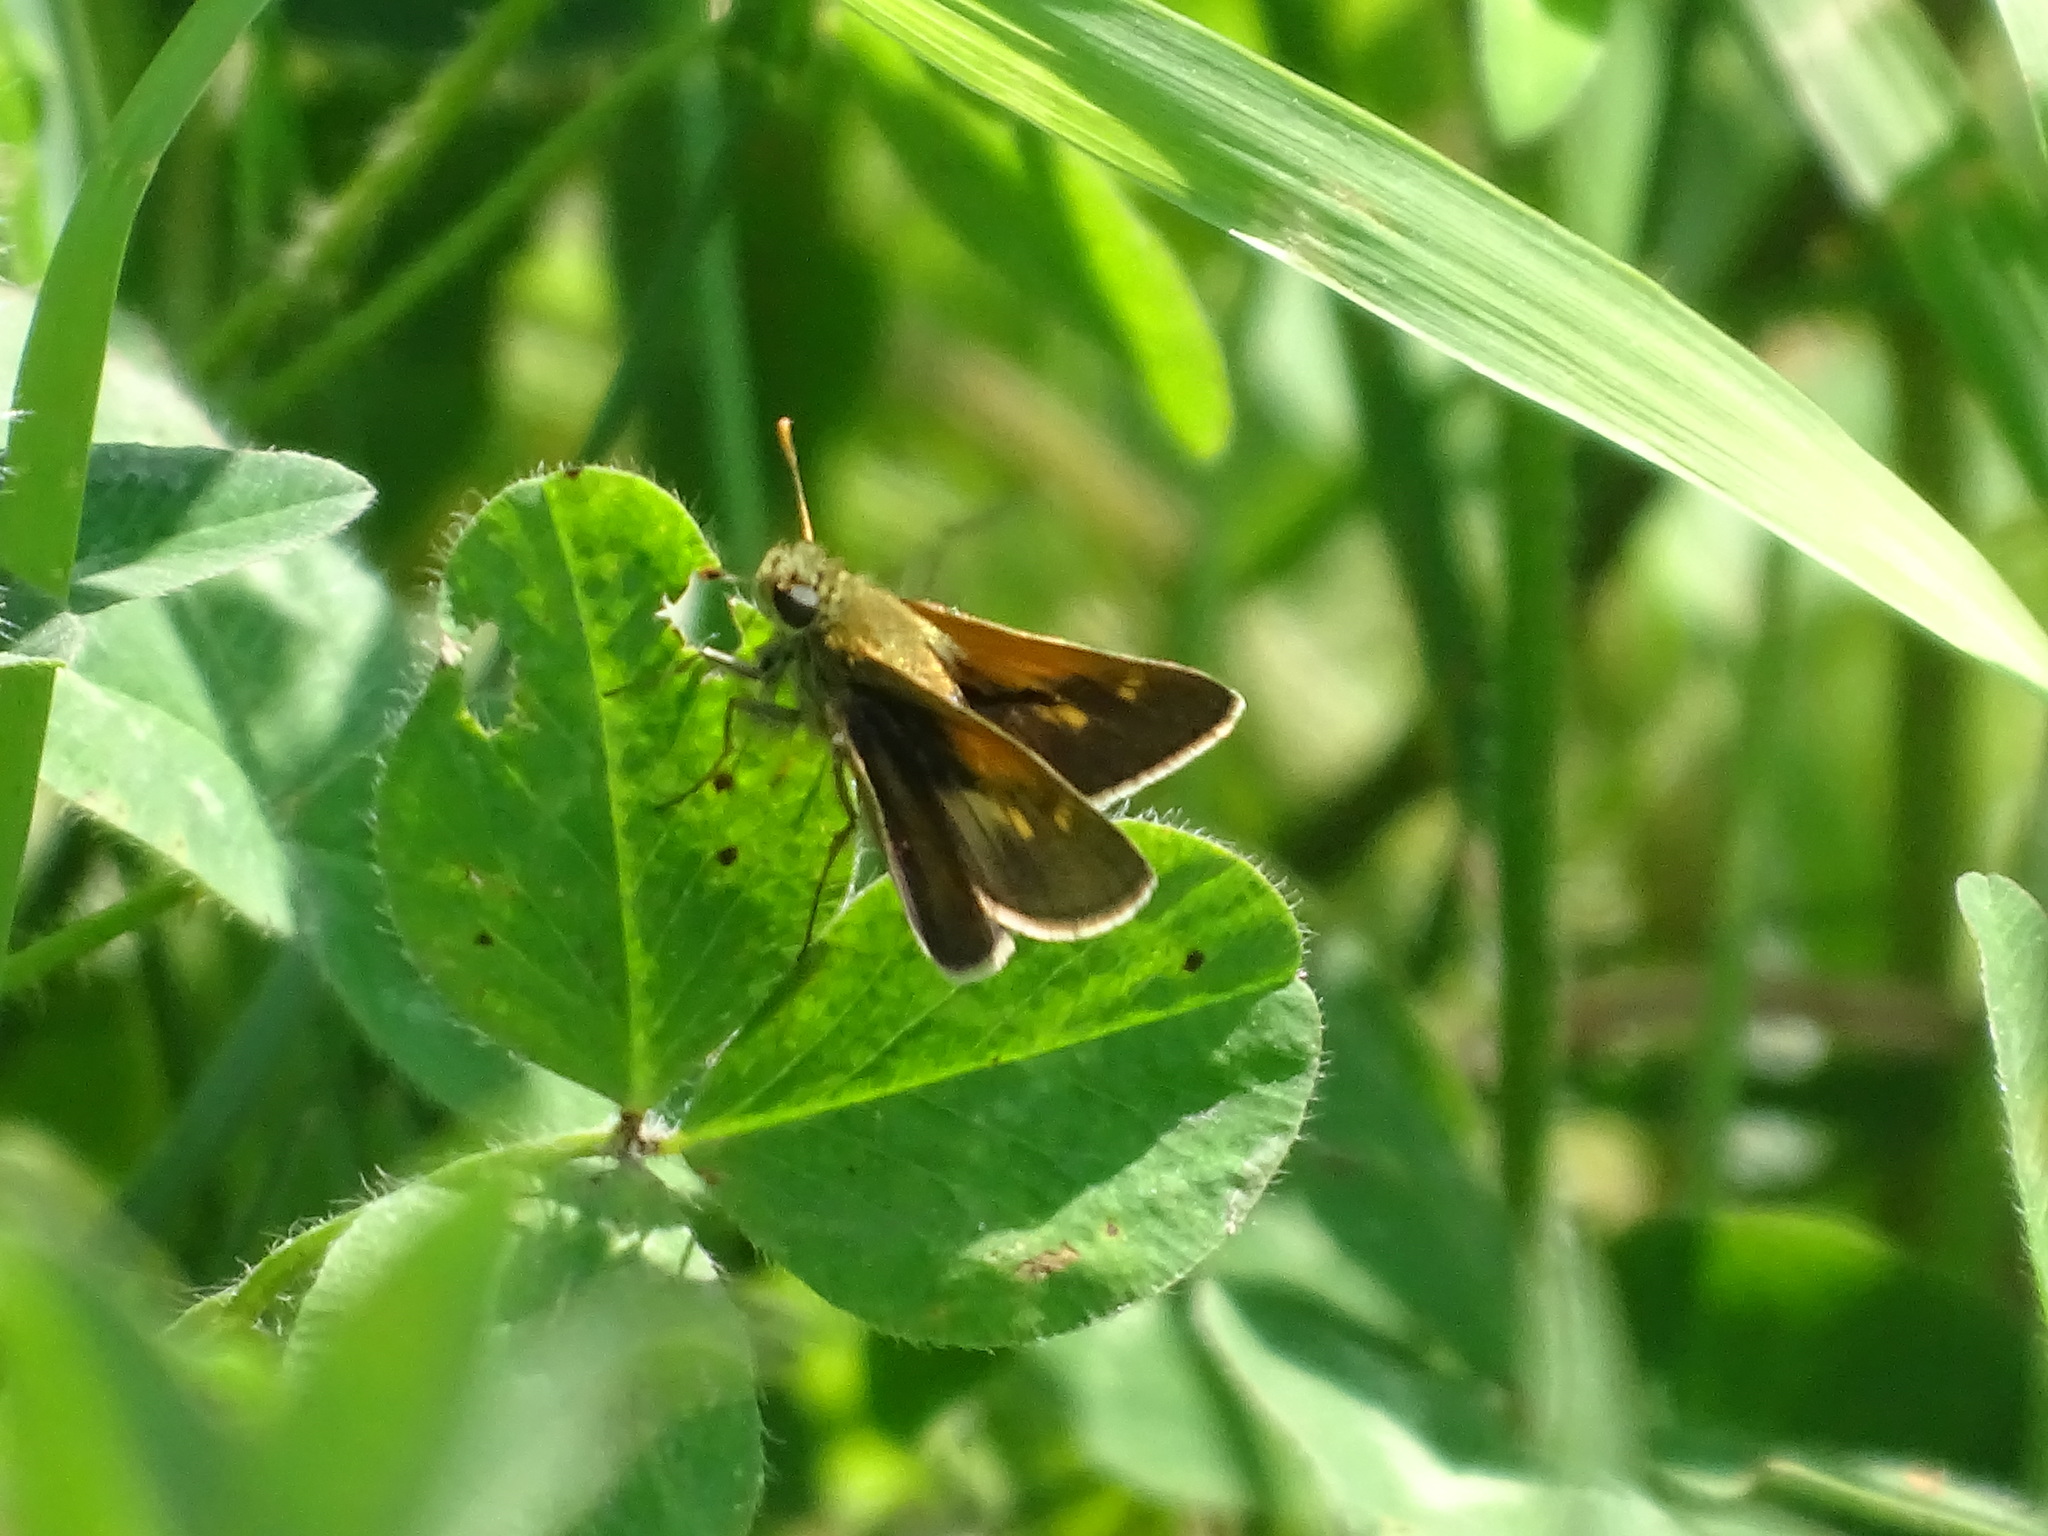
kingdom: Animalia
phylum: Arthropoda
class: Insecta
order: Lepidoptera
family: Hesperiidae
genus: Polites
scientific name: Polites themistocles
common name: Tawny-edged skipper
